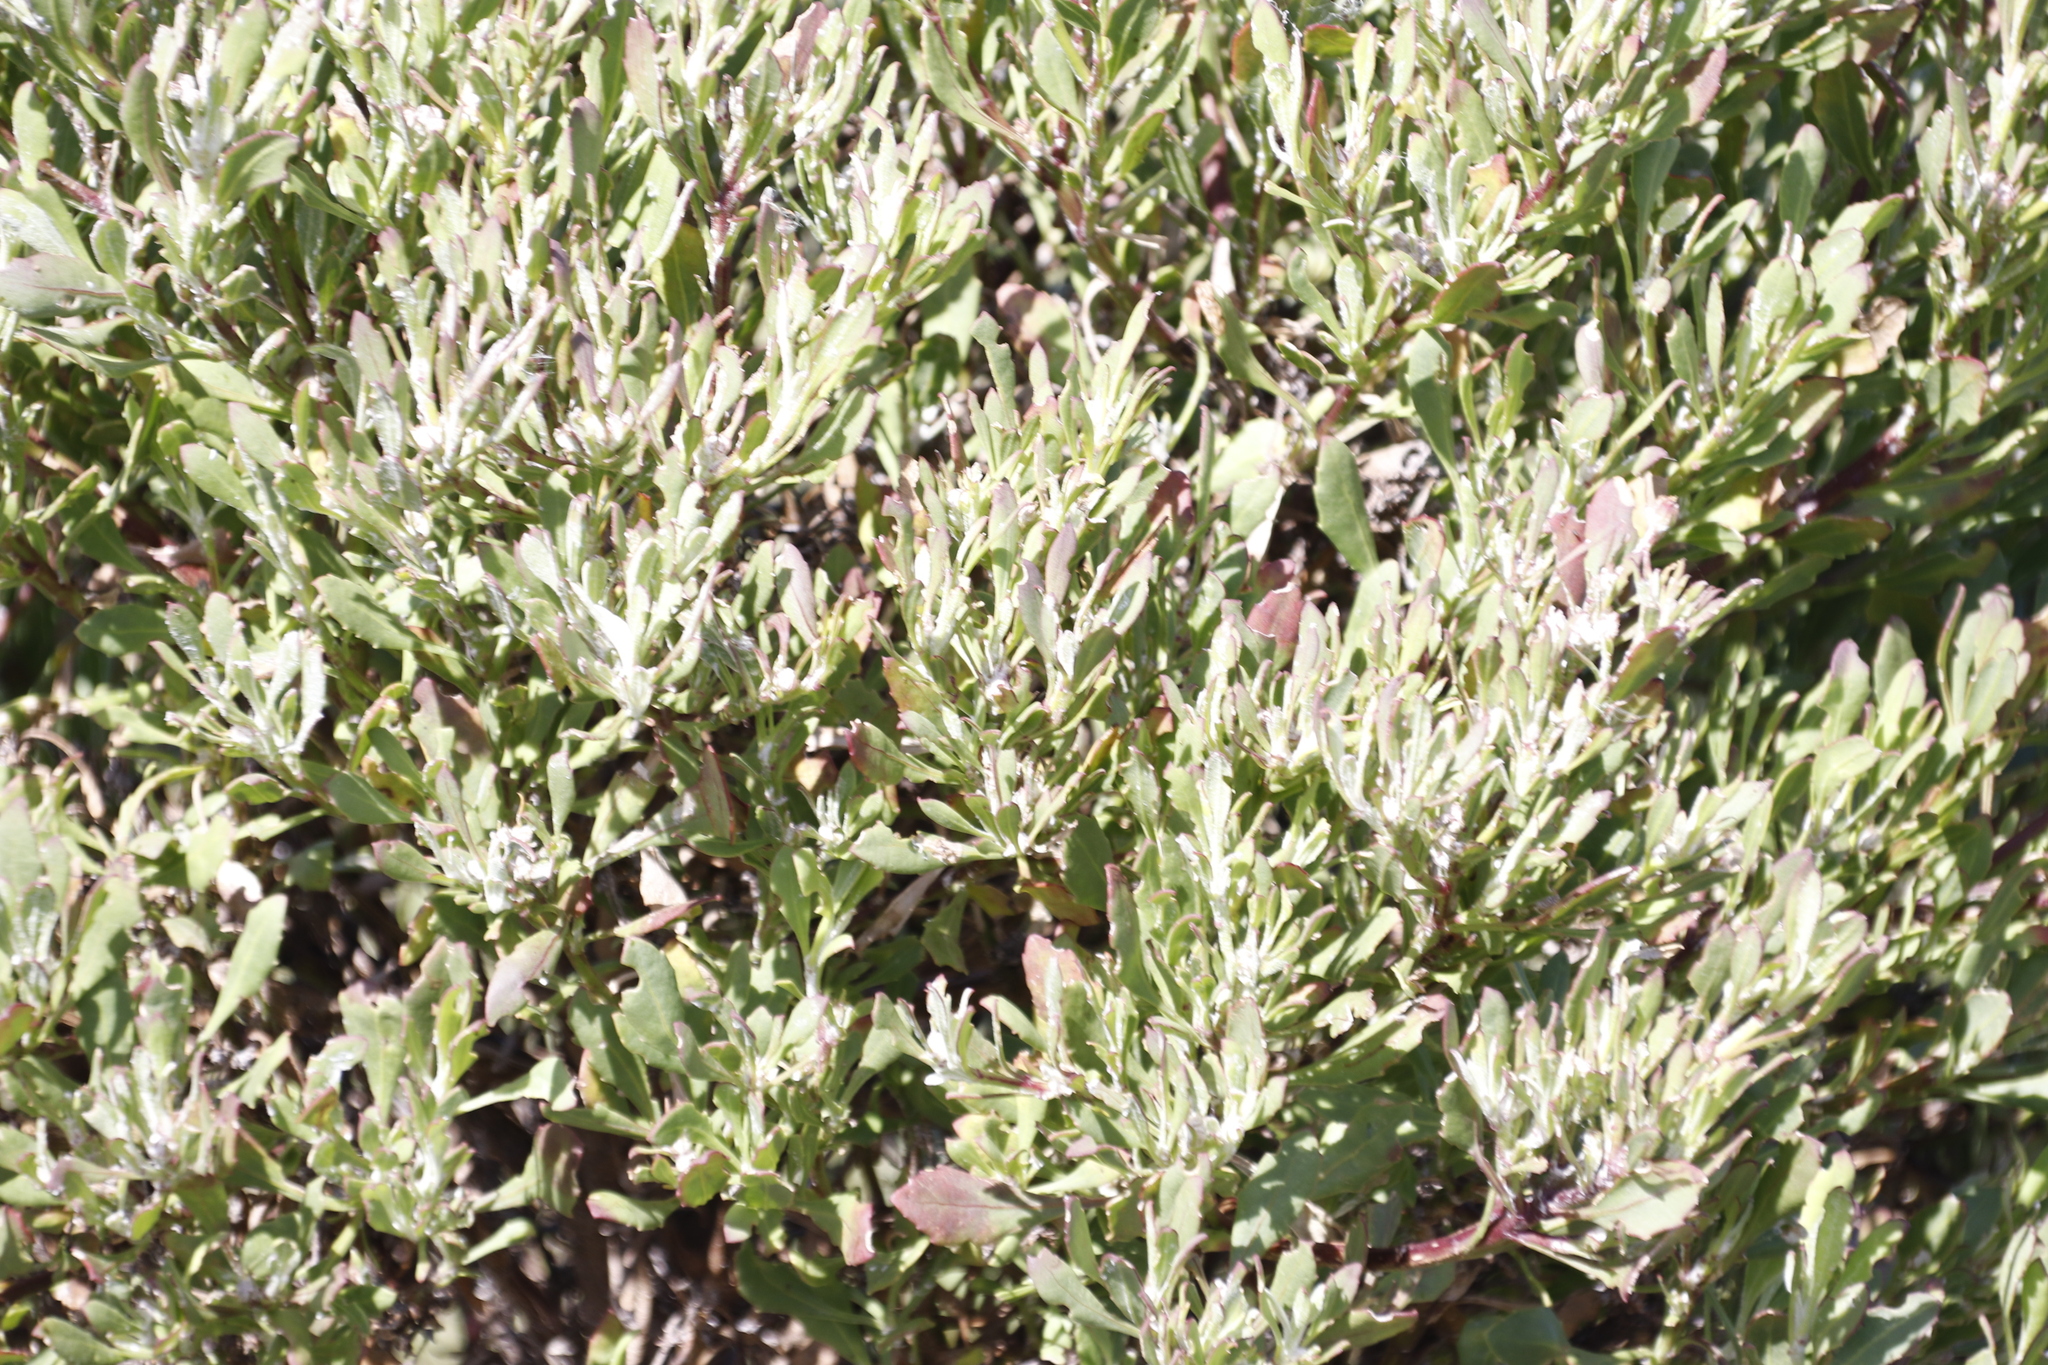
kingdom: Plantae
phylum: Tracheophyta
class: Magnoliopsida
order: Asterales
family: Asteraceae
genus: Osteospermum
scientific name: Osteospermum moniliferum
